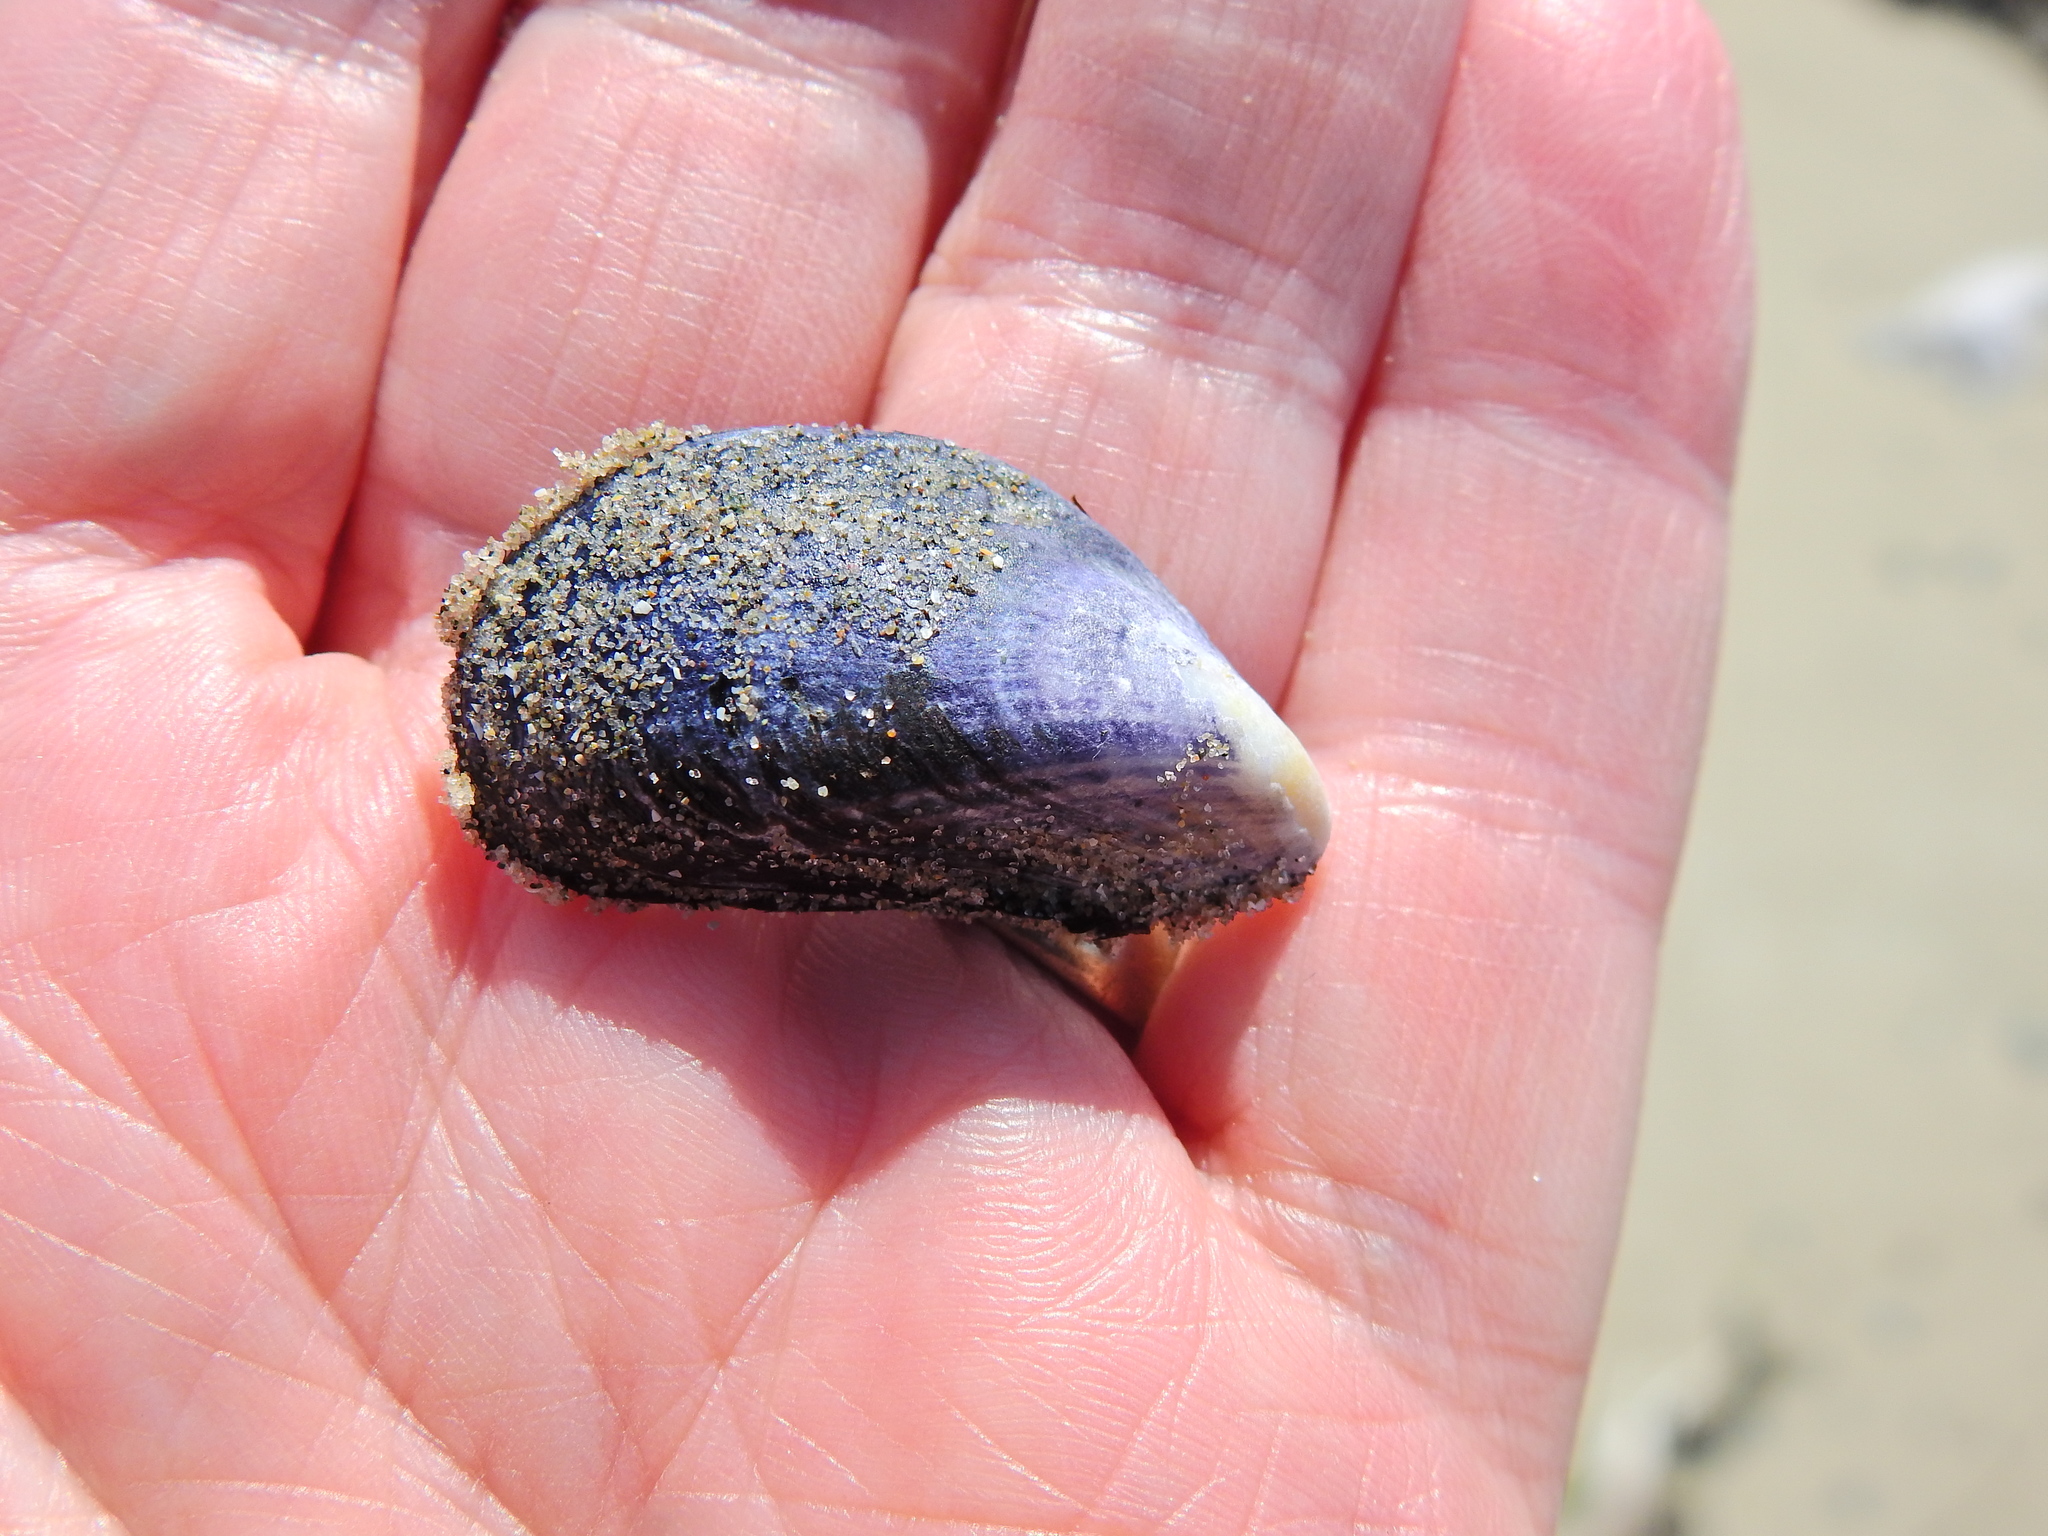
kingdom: Animalia
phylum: Mollusca
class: Bivalvia
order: Mytilida
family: Mytilidae
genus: Mytilus
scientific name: Mytilus edulis
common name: Blue mussel
